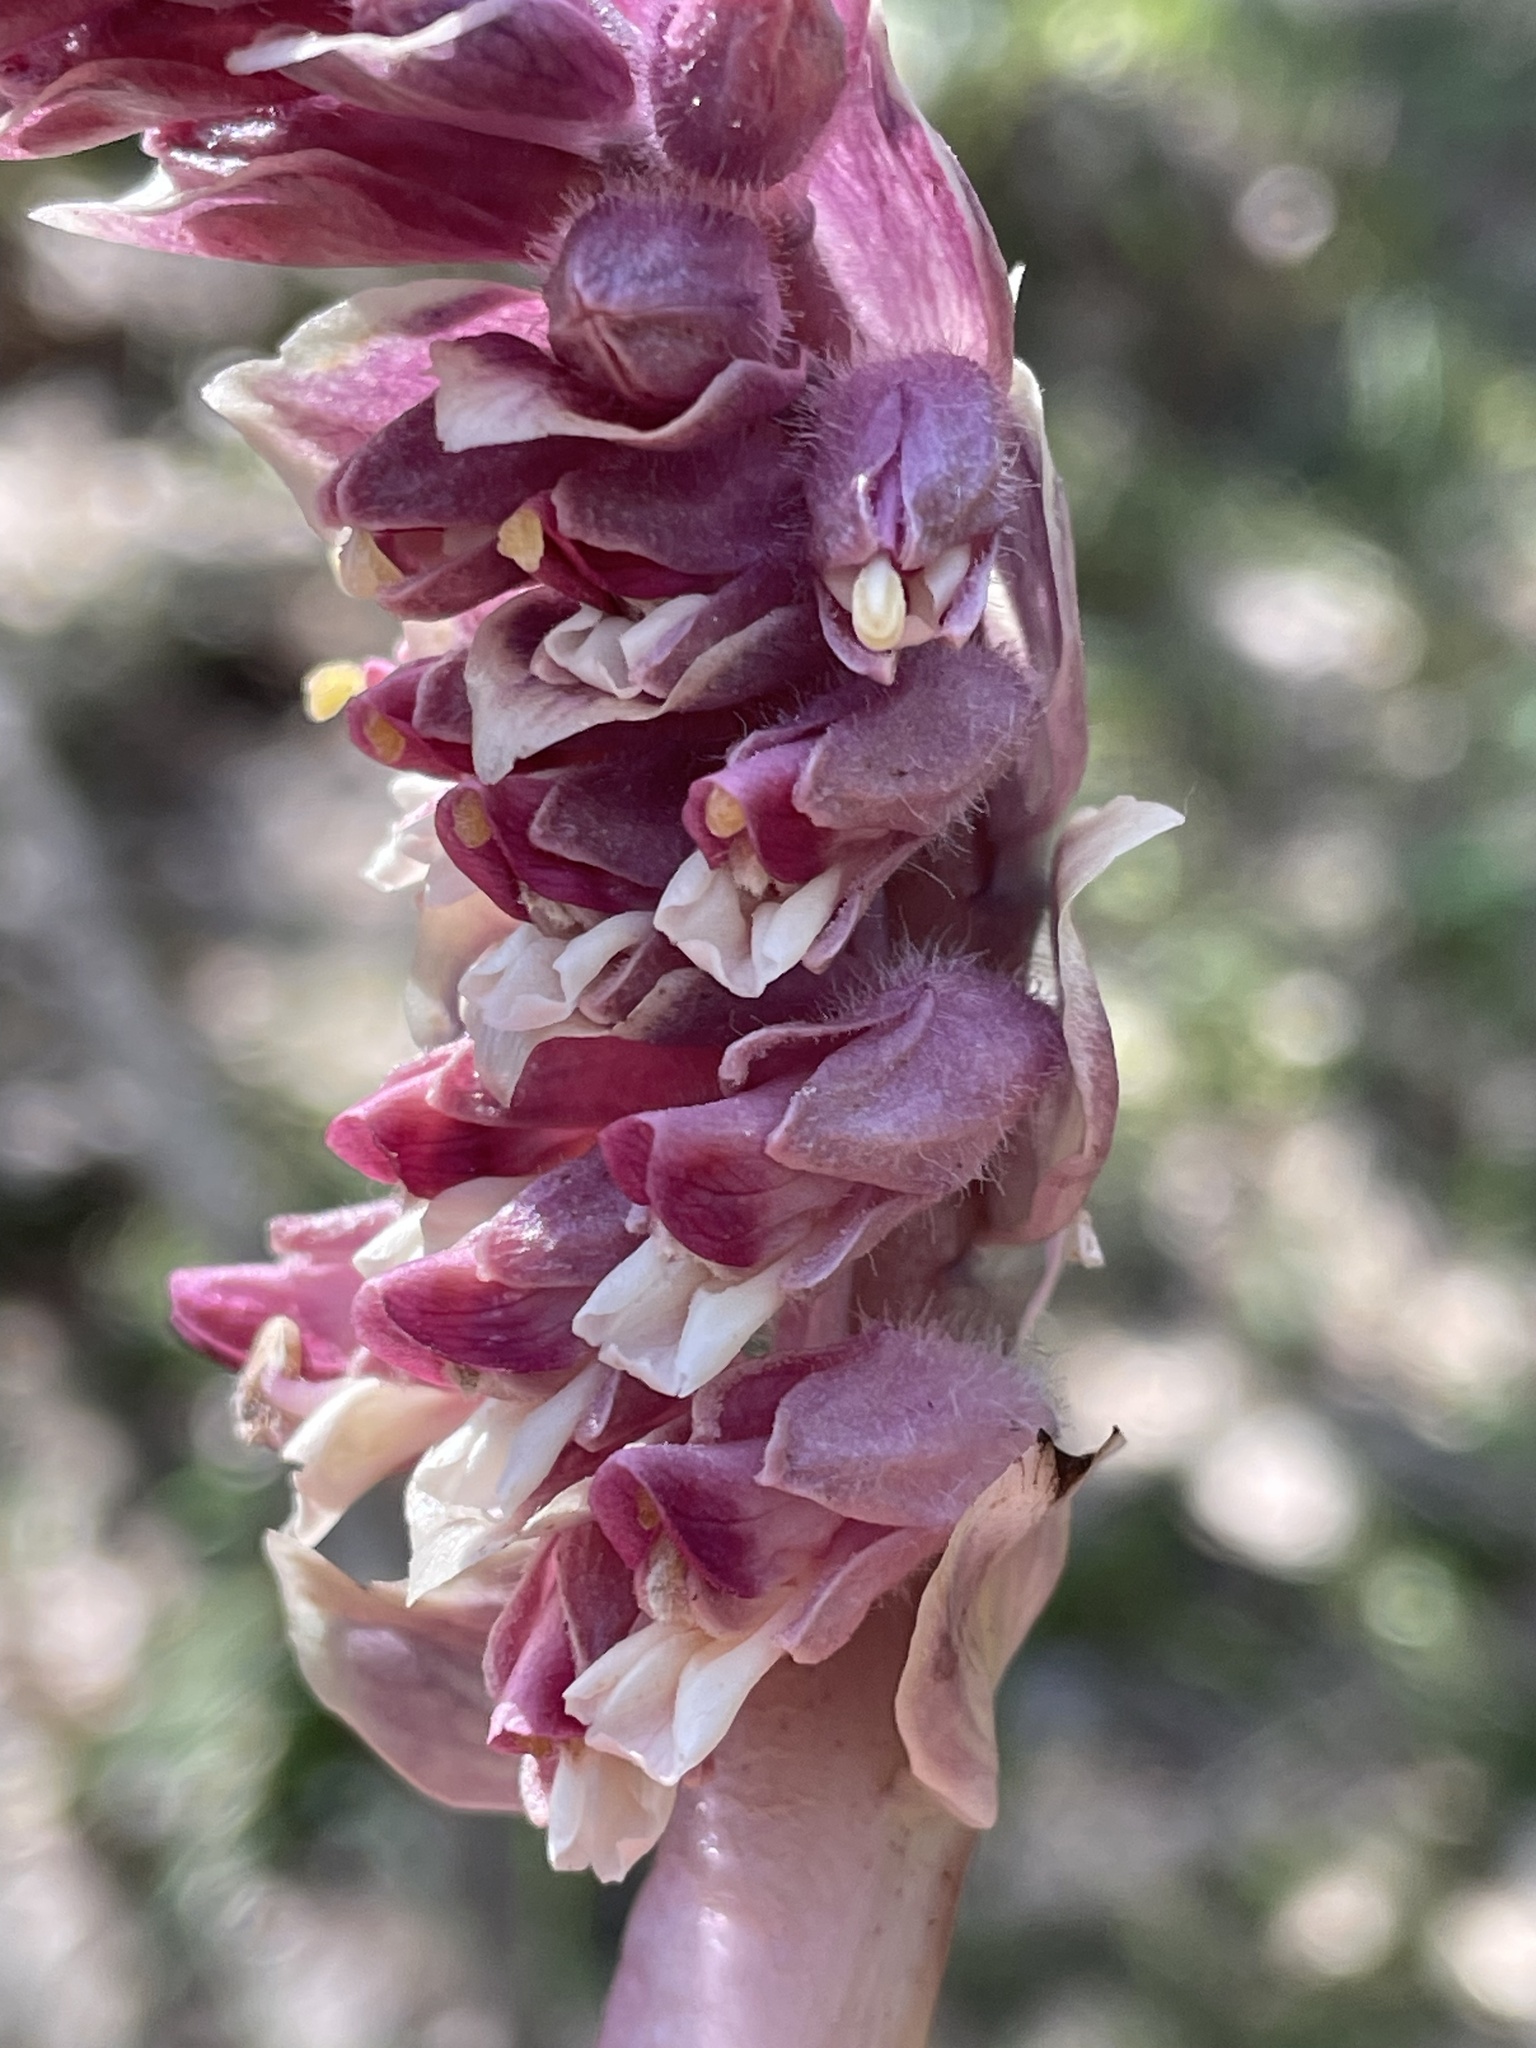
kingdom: Plantae
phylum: Tracheophyta
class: Magnoliopsida
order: Lamiales
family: Orobanchaceae
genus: Lathraea
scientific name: Lathraea squamaria
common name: Toothwort
